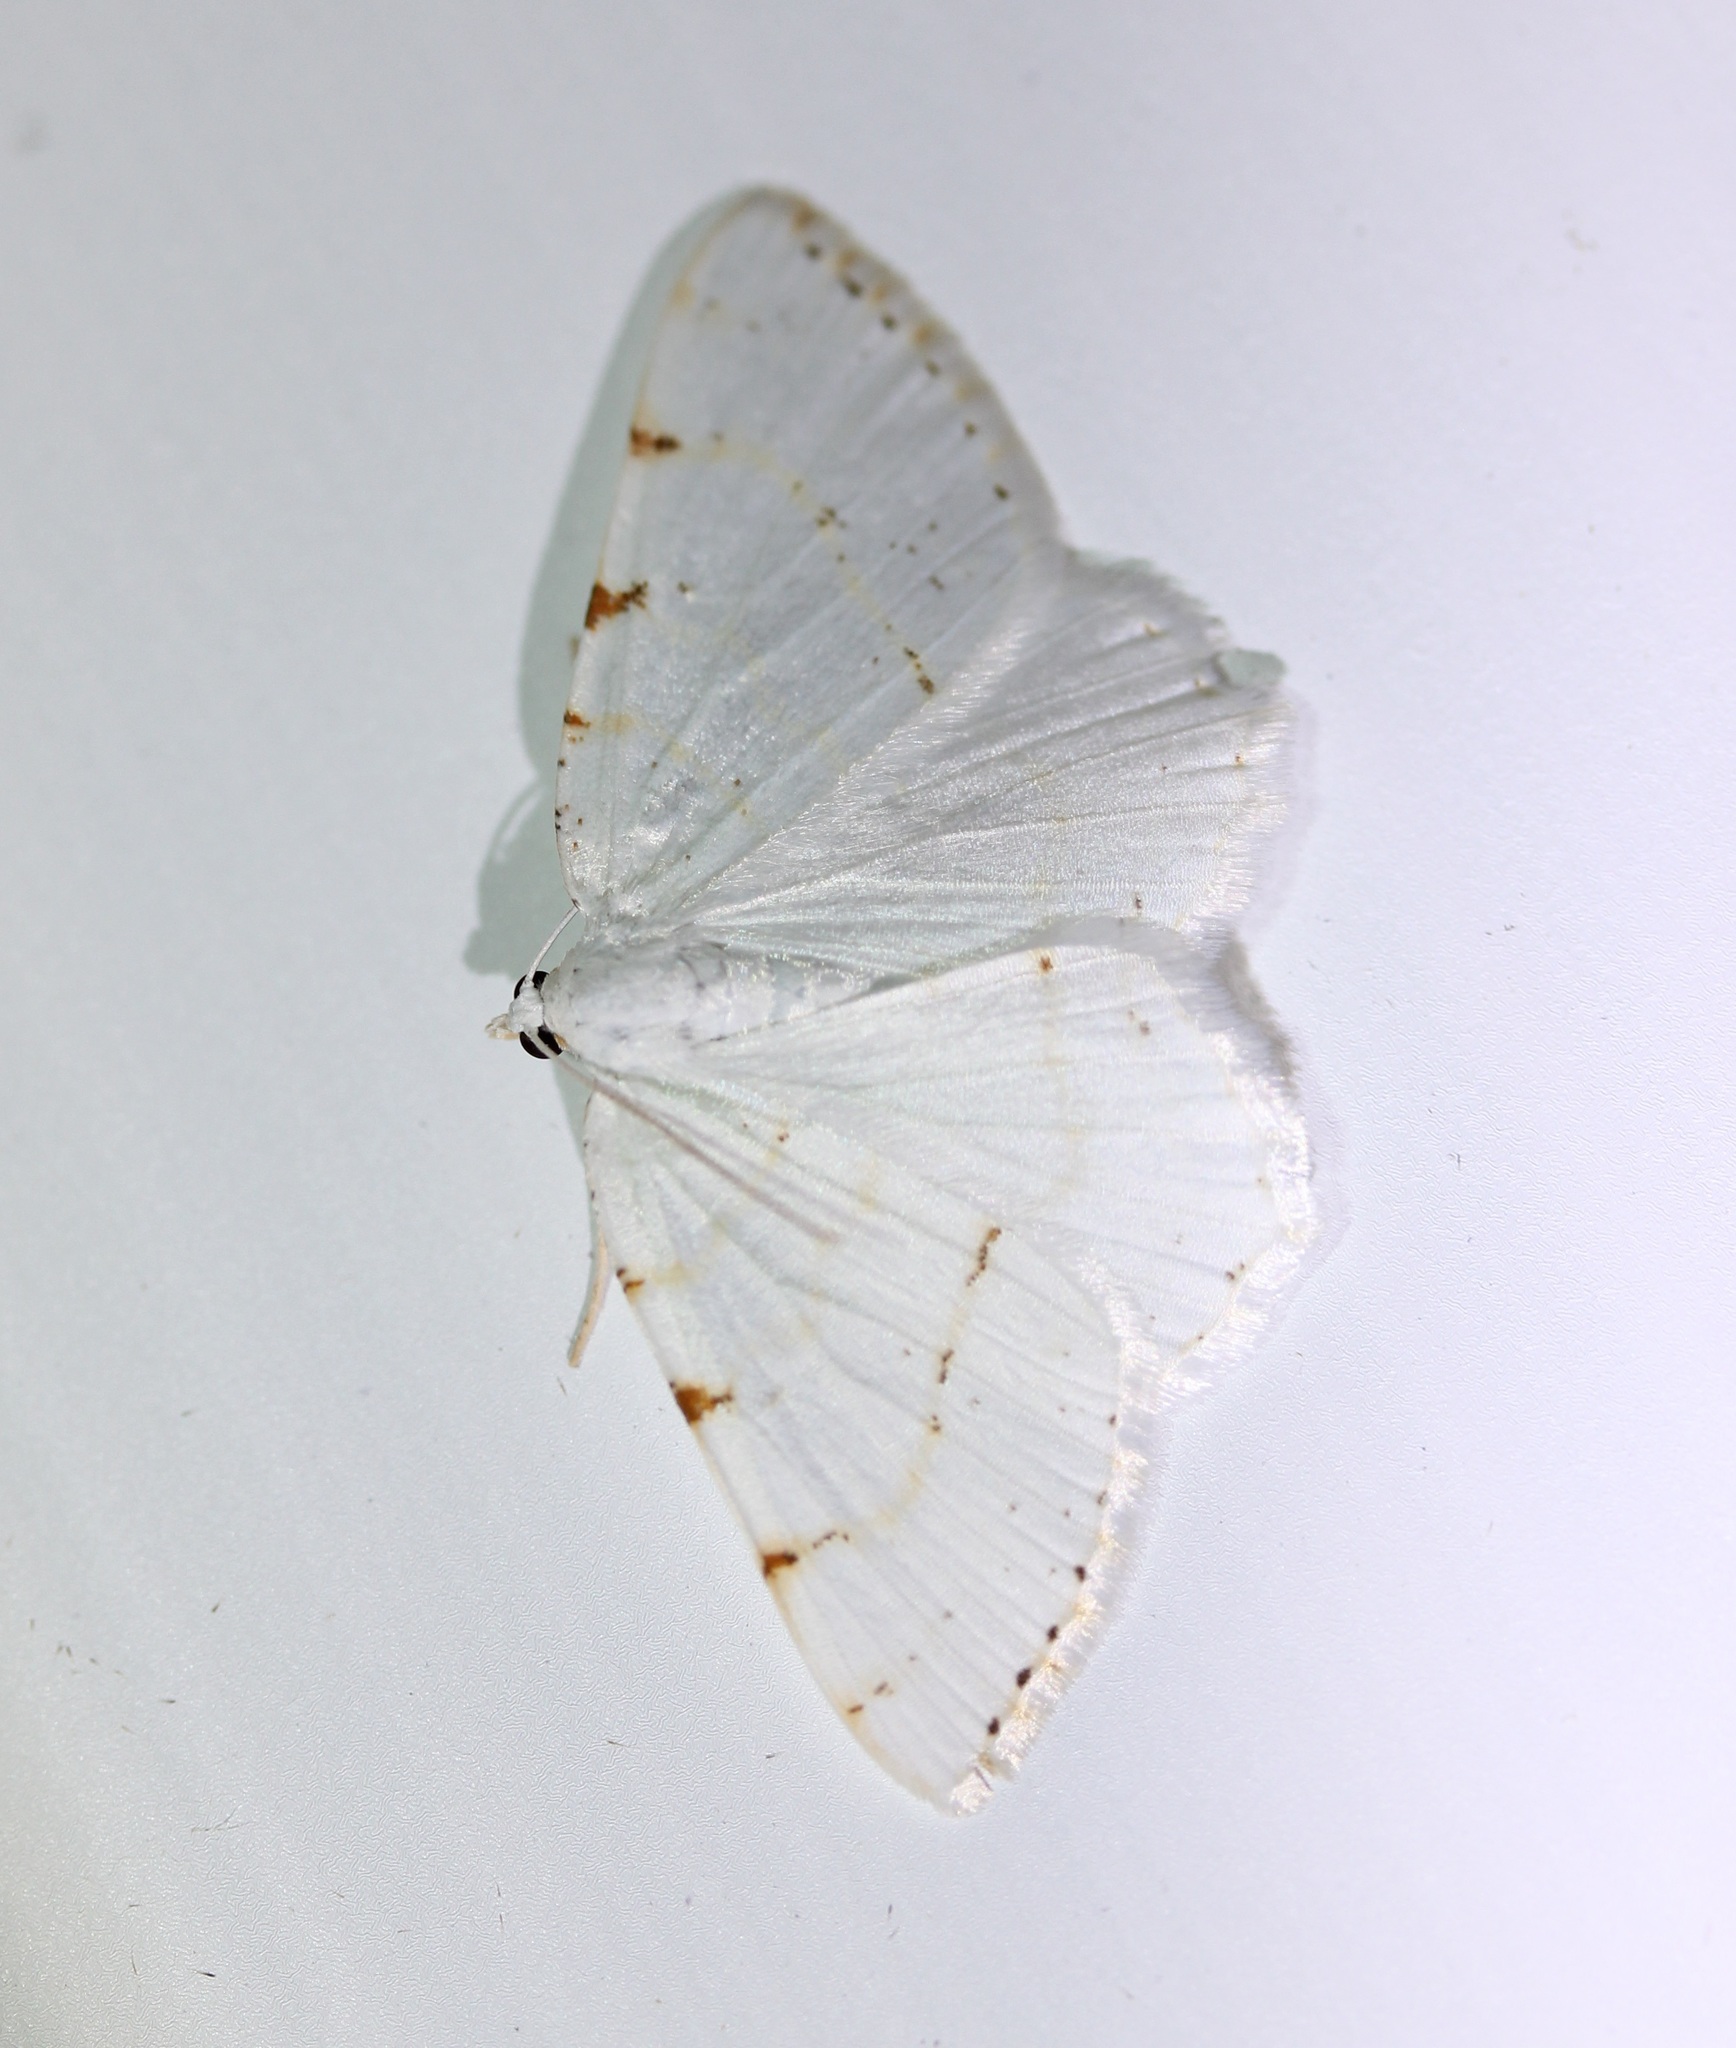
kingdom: Animalia
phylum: Arthropoda
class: Insecta
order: Lepidoptera
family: Geometridae
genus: Macaria
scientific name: Macaria pustularia
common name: Lesser maple spanworm moth
